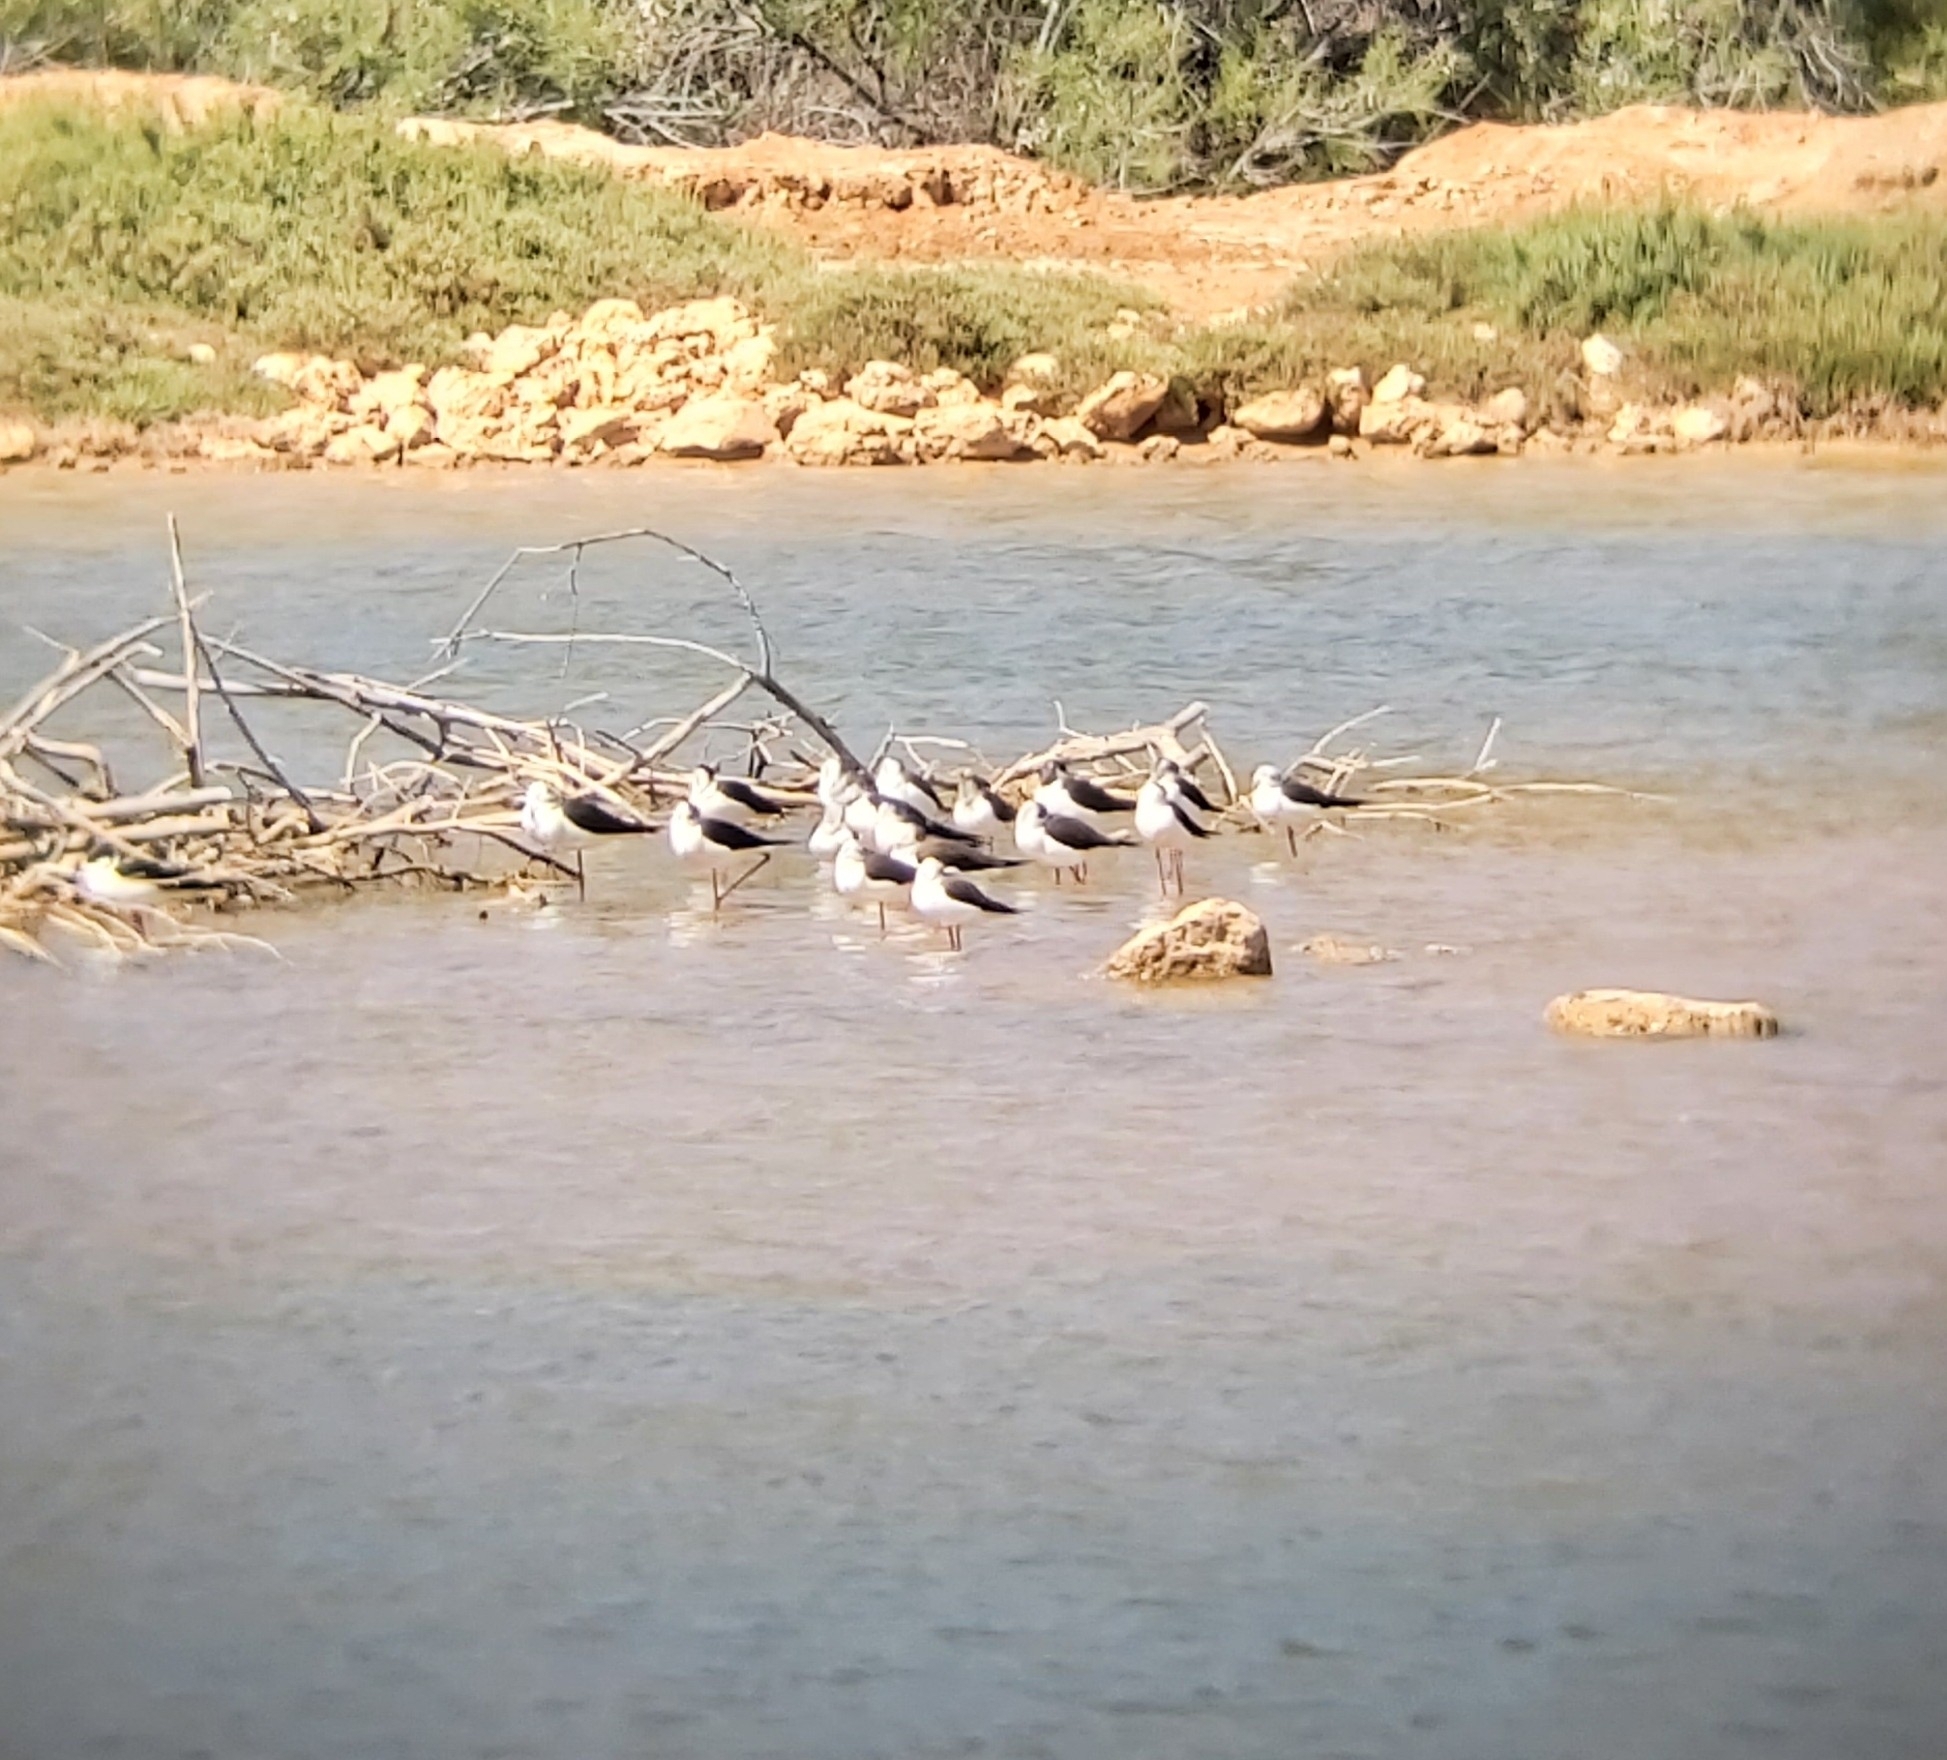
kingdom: Animalia
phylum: Chordata
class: Aves
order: Charadriiformes
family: Recurvirostridae
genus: Himantopus
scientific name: Himantopus himantopus
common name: Black-winged stilt
